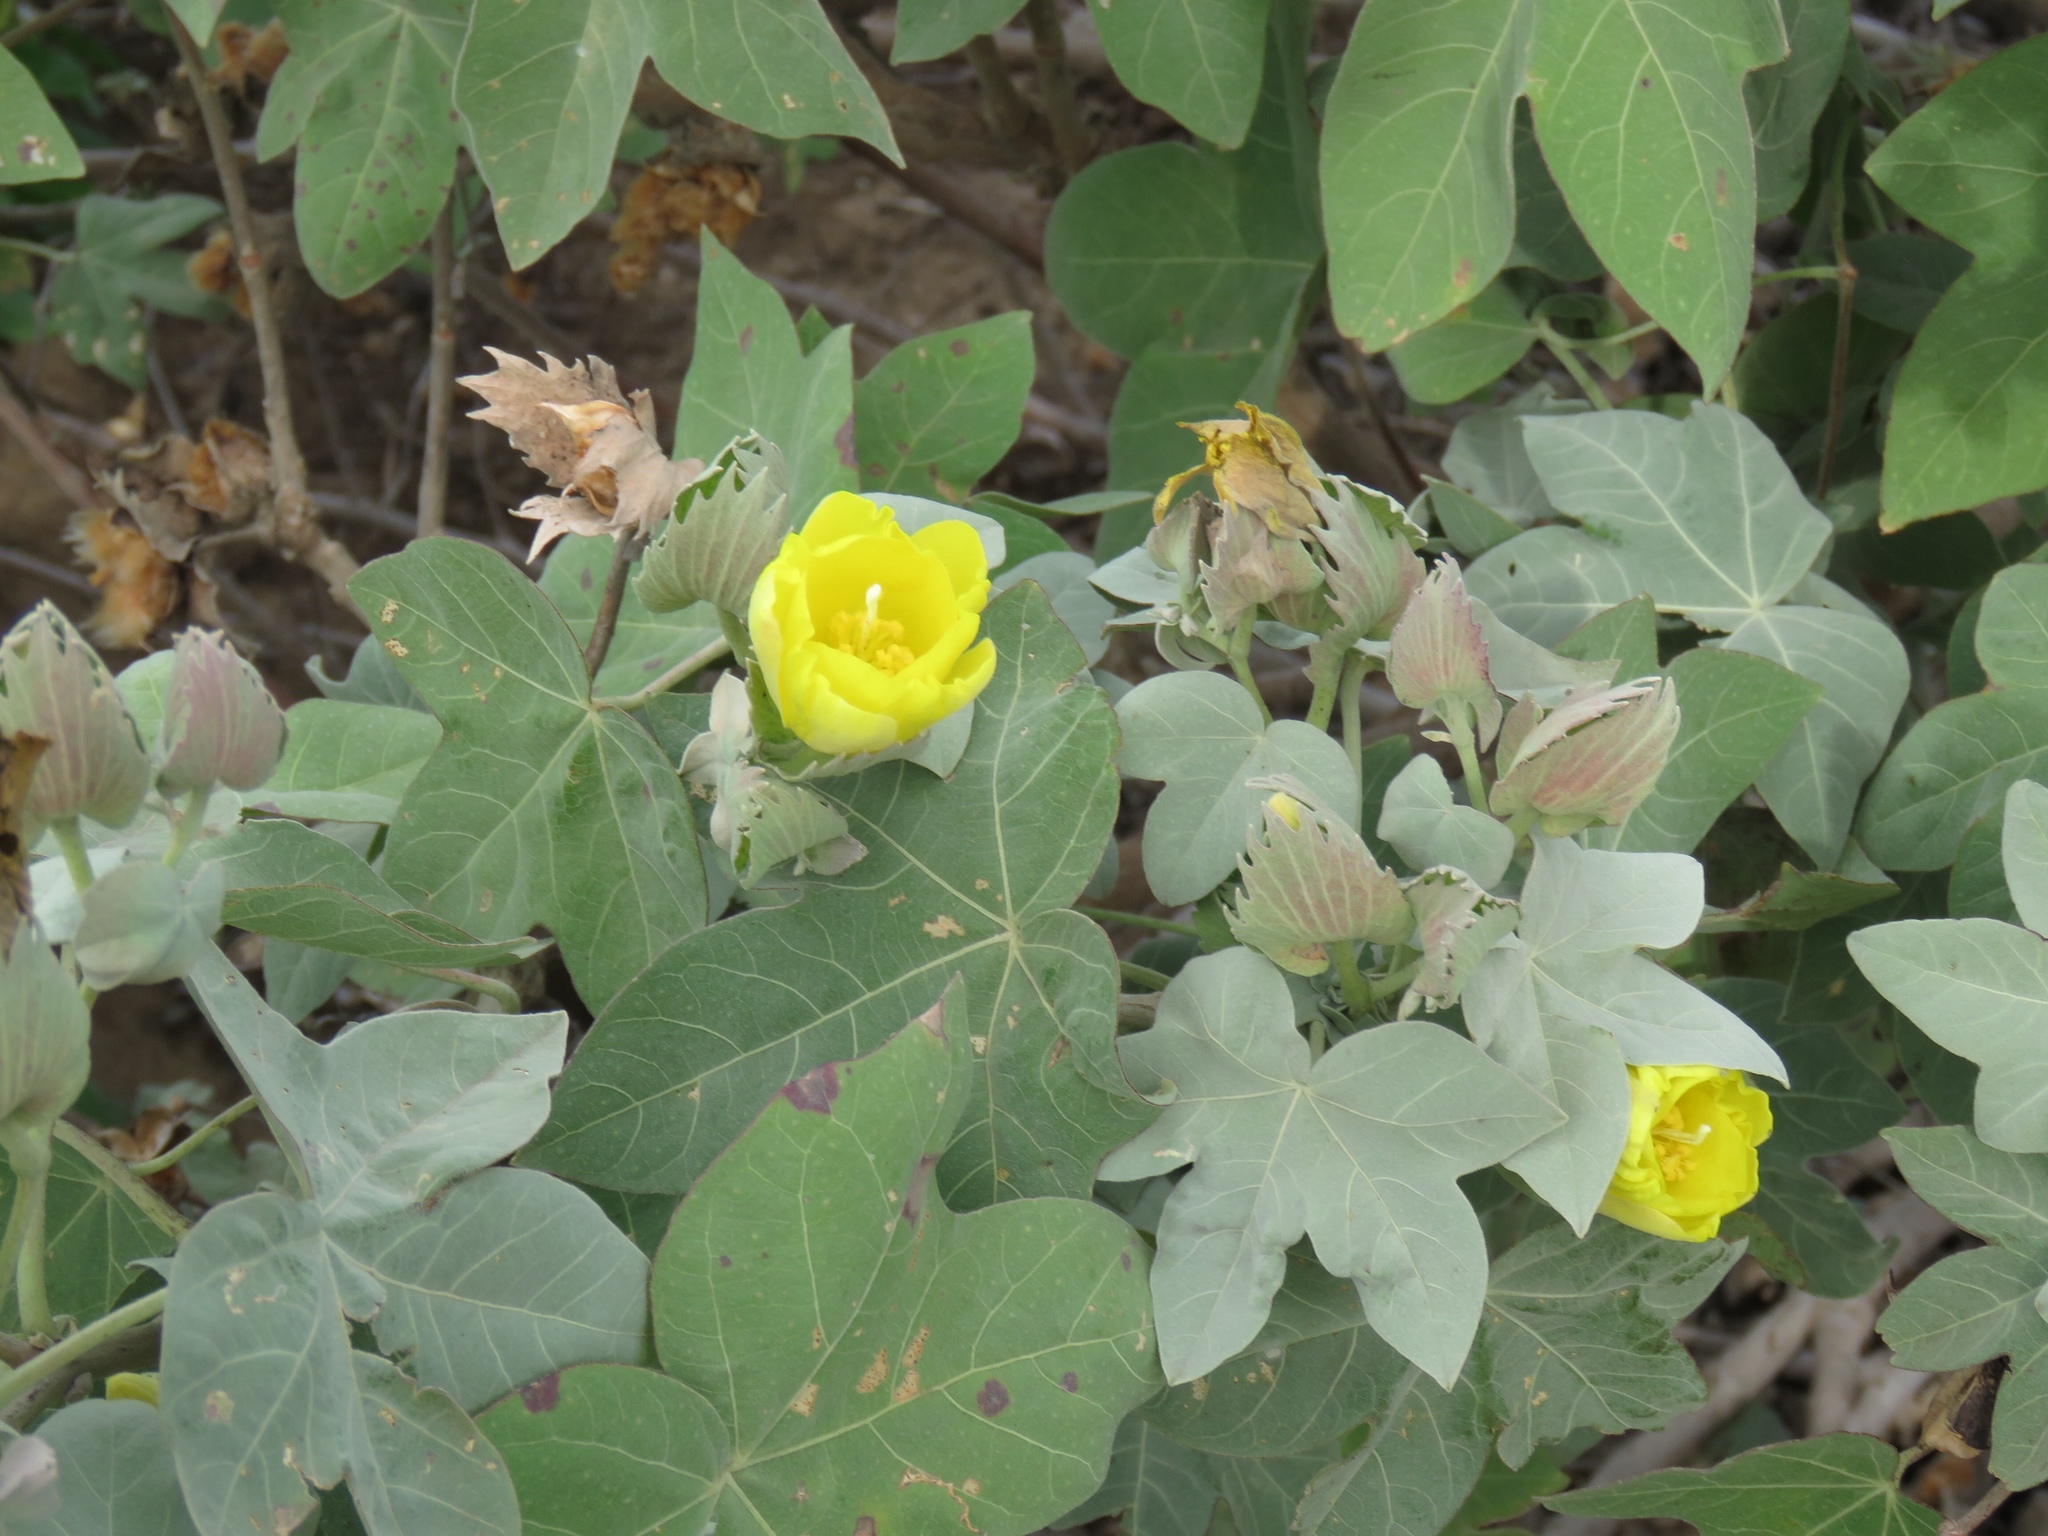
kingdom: Plantae
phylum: Tracheophyta
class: Magnoliopsida
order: Malvales
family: Malvaceae
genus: Gossypium
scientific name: Gossypium tomentosum
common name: Hawaiian cotton
